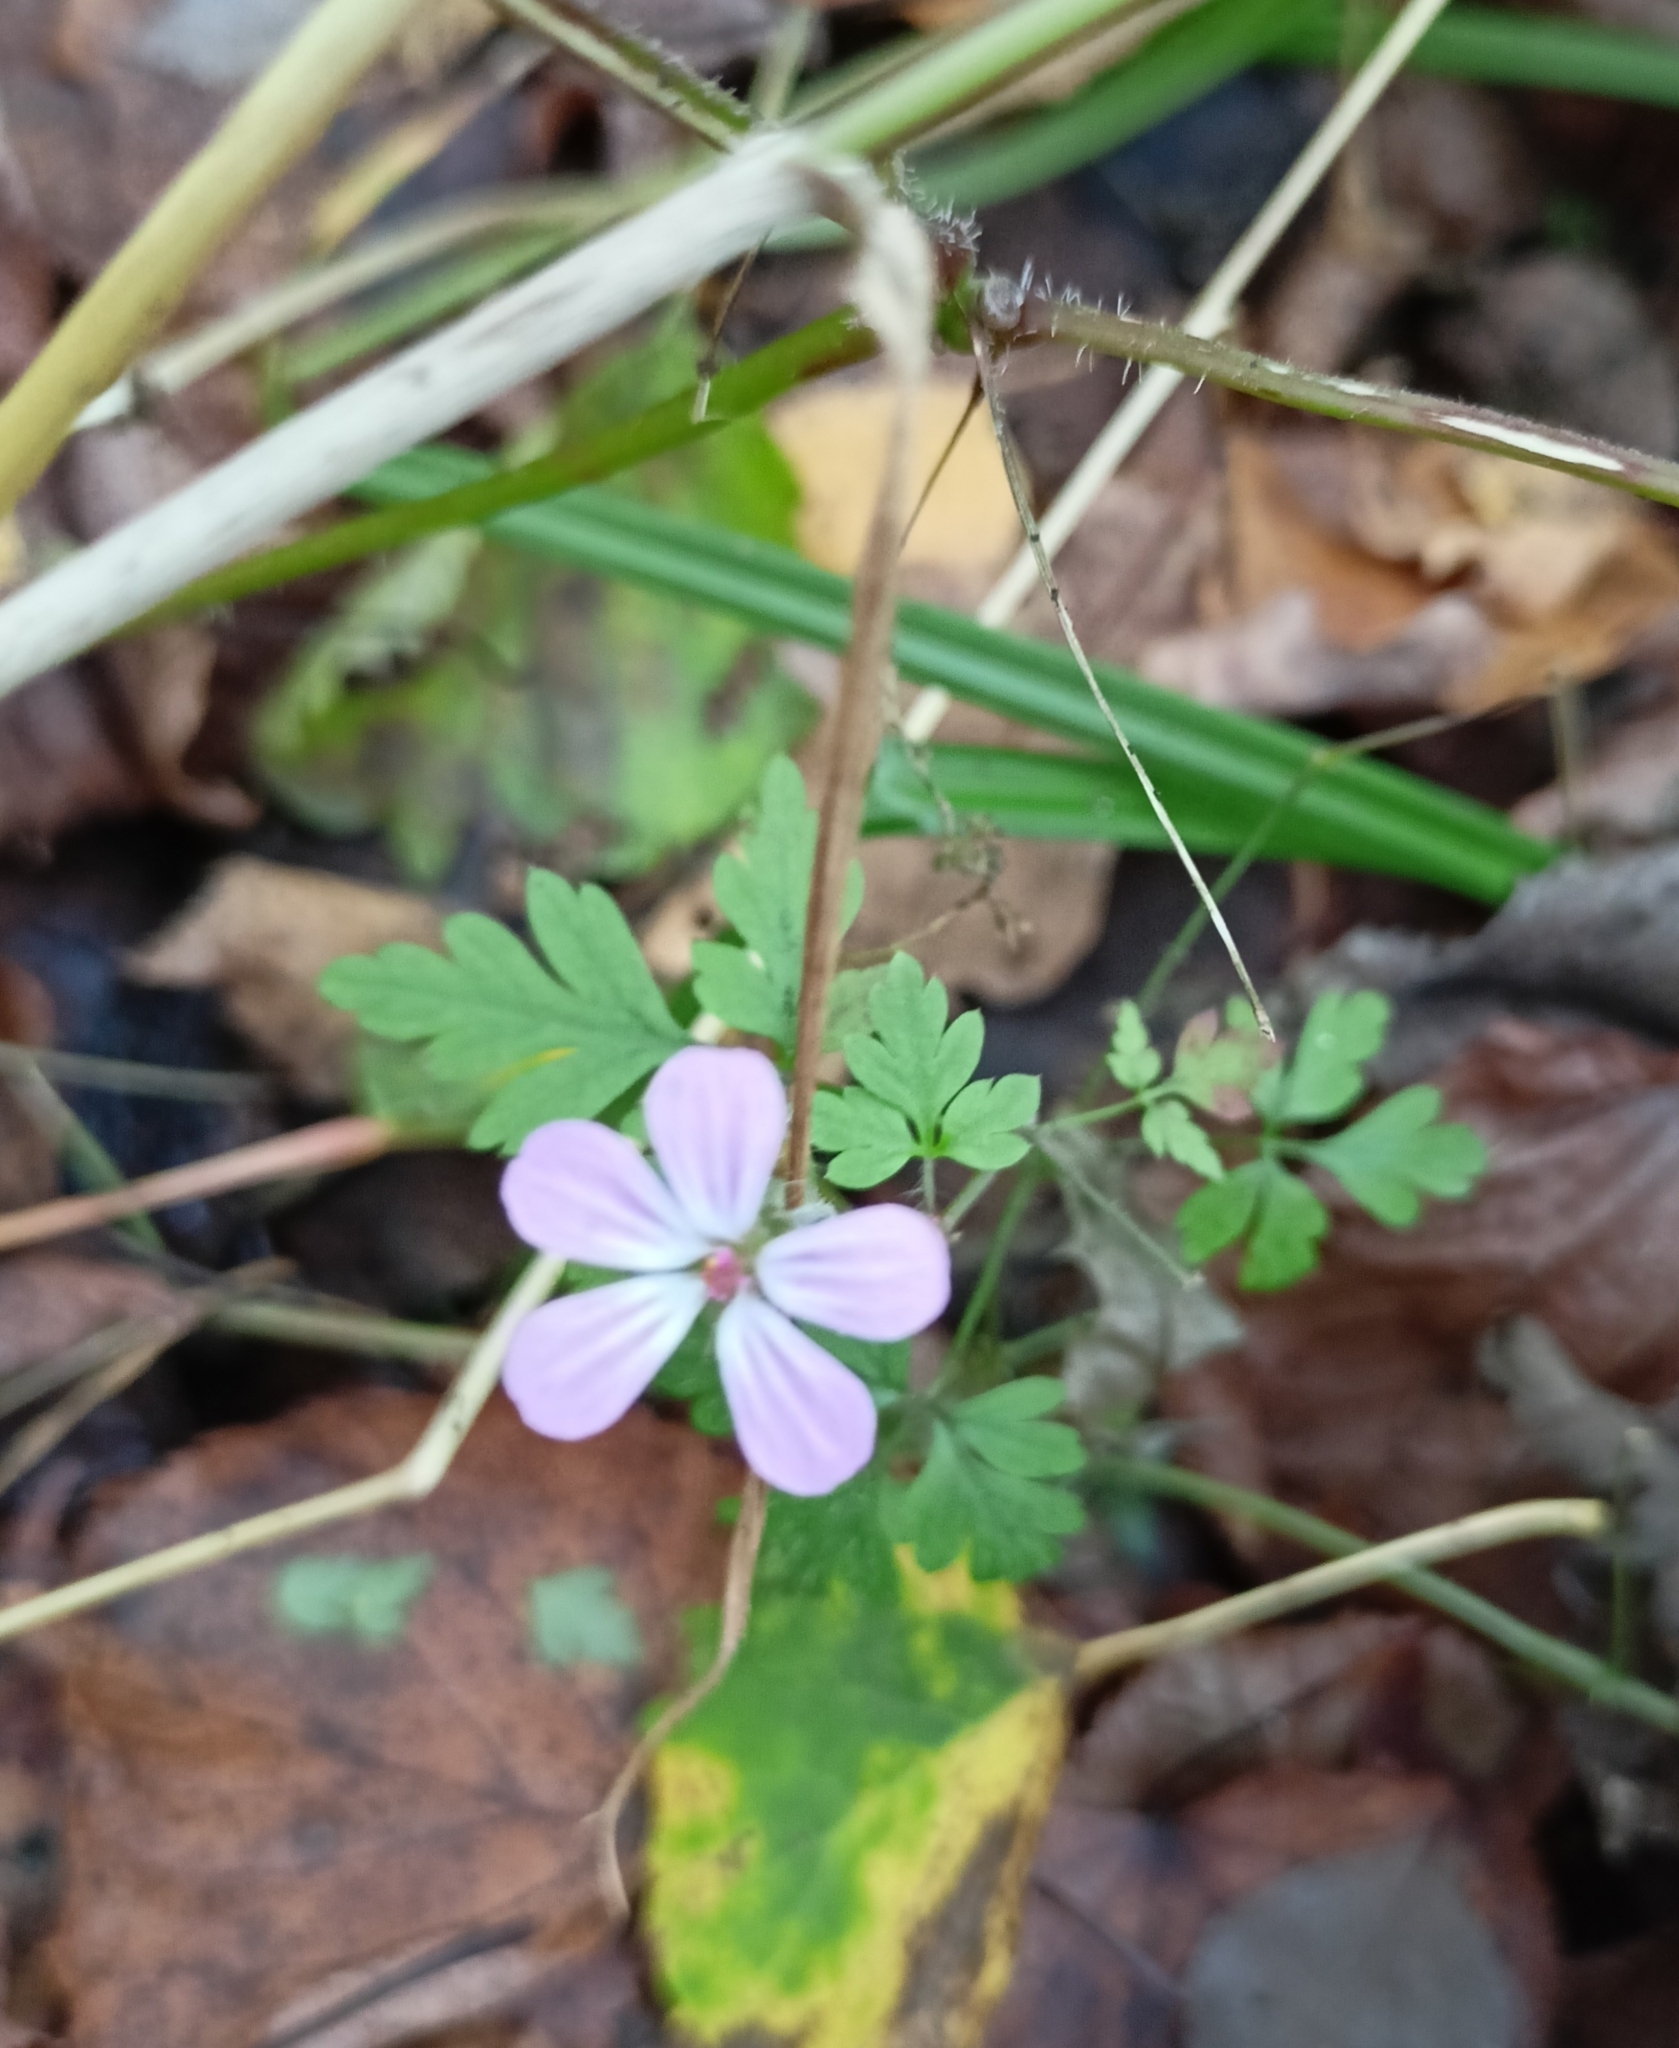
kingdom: Plantae
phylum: Tracheophyta
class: Magnoliopsida
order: Geraniales
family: Geraniaceae
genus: Geranium
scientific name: Geranium robertianum
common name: Herb-robert
